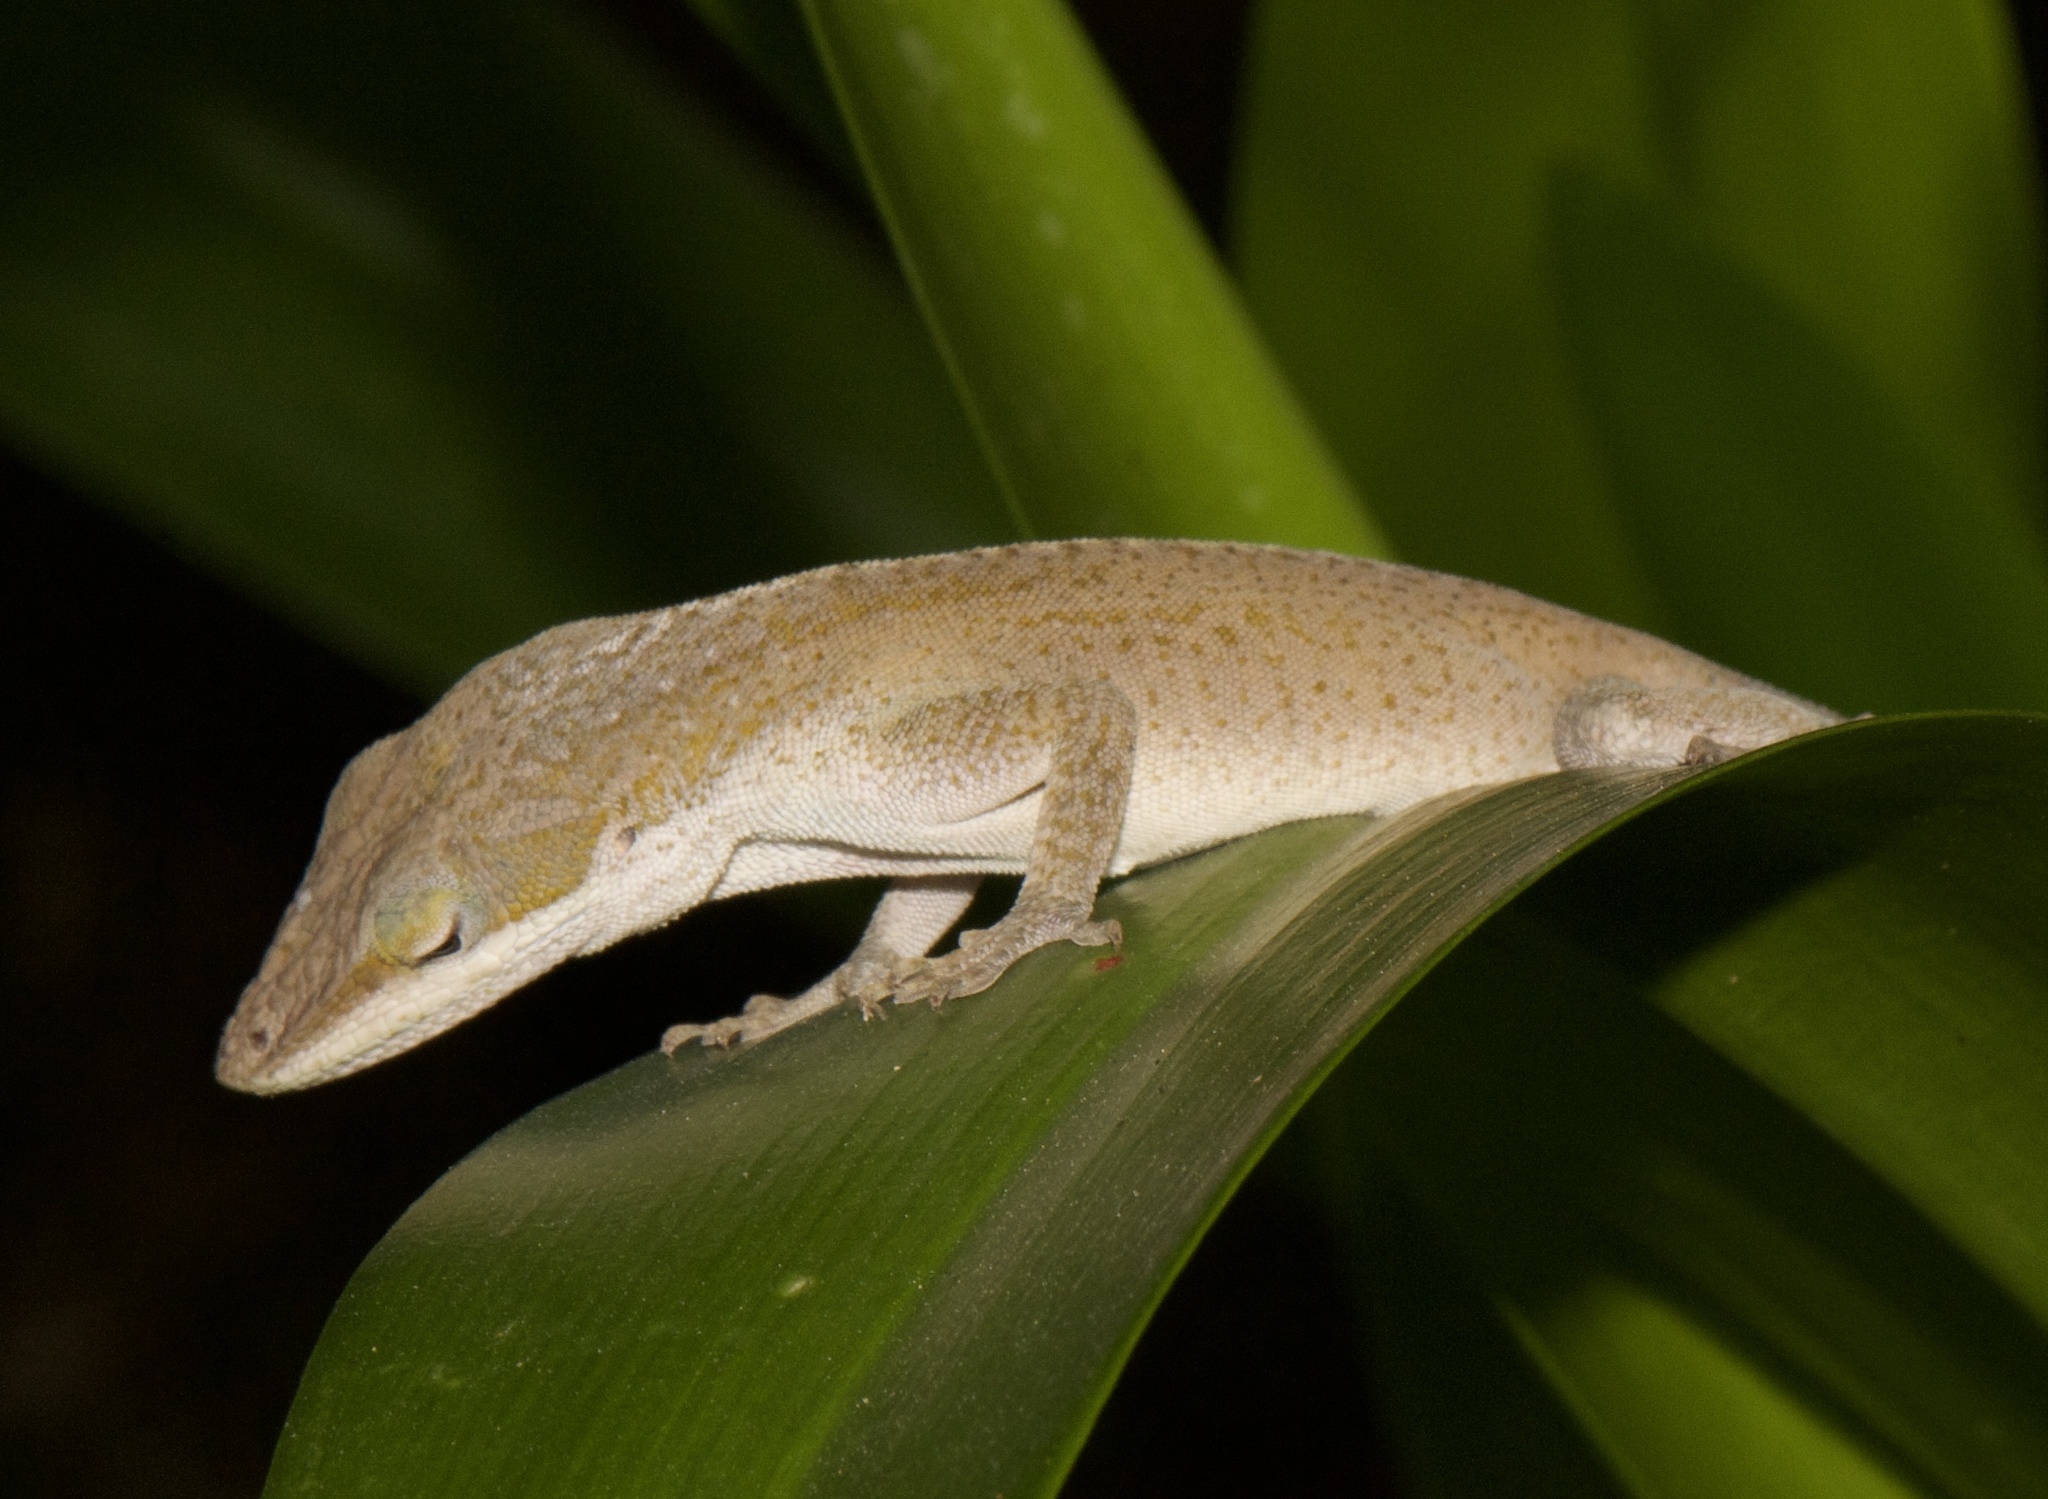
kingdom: Animalia
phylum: Chordata
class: Squamata
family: Dactyloidae
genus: Anolis
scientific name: Anolis carolinensis
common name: Green anole
